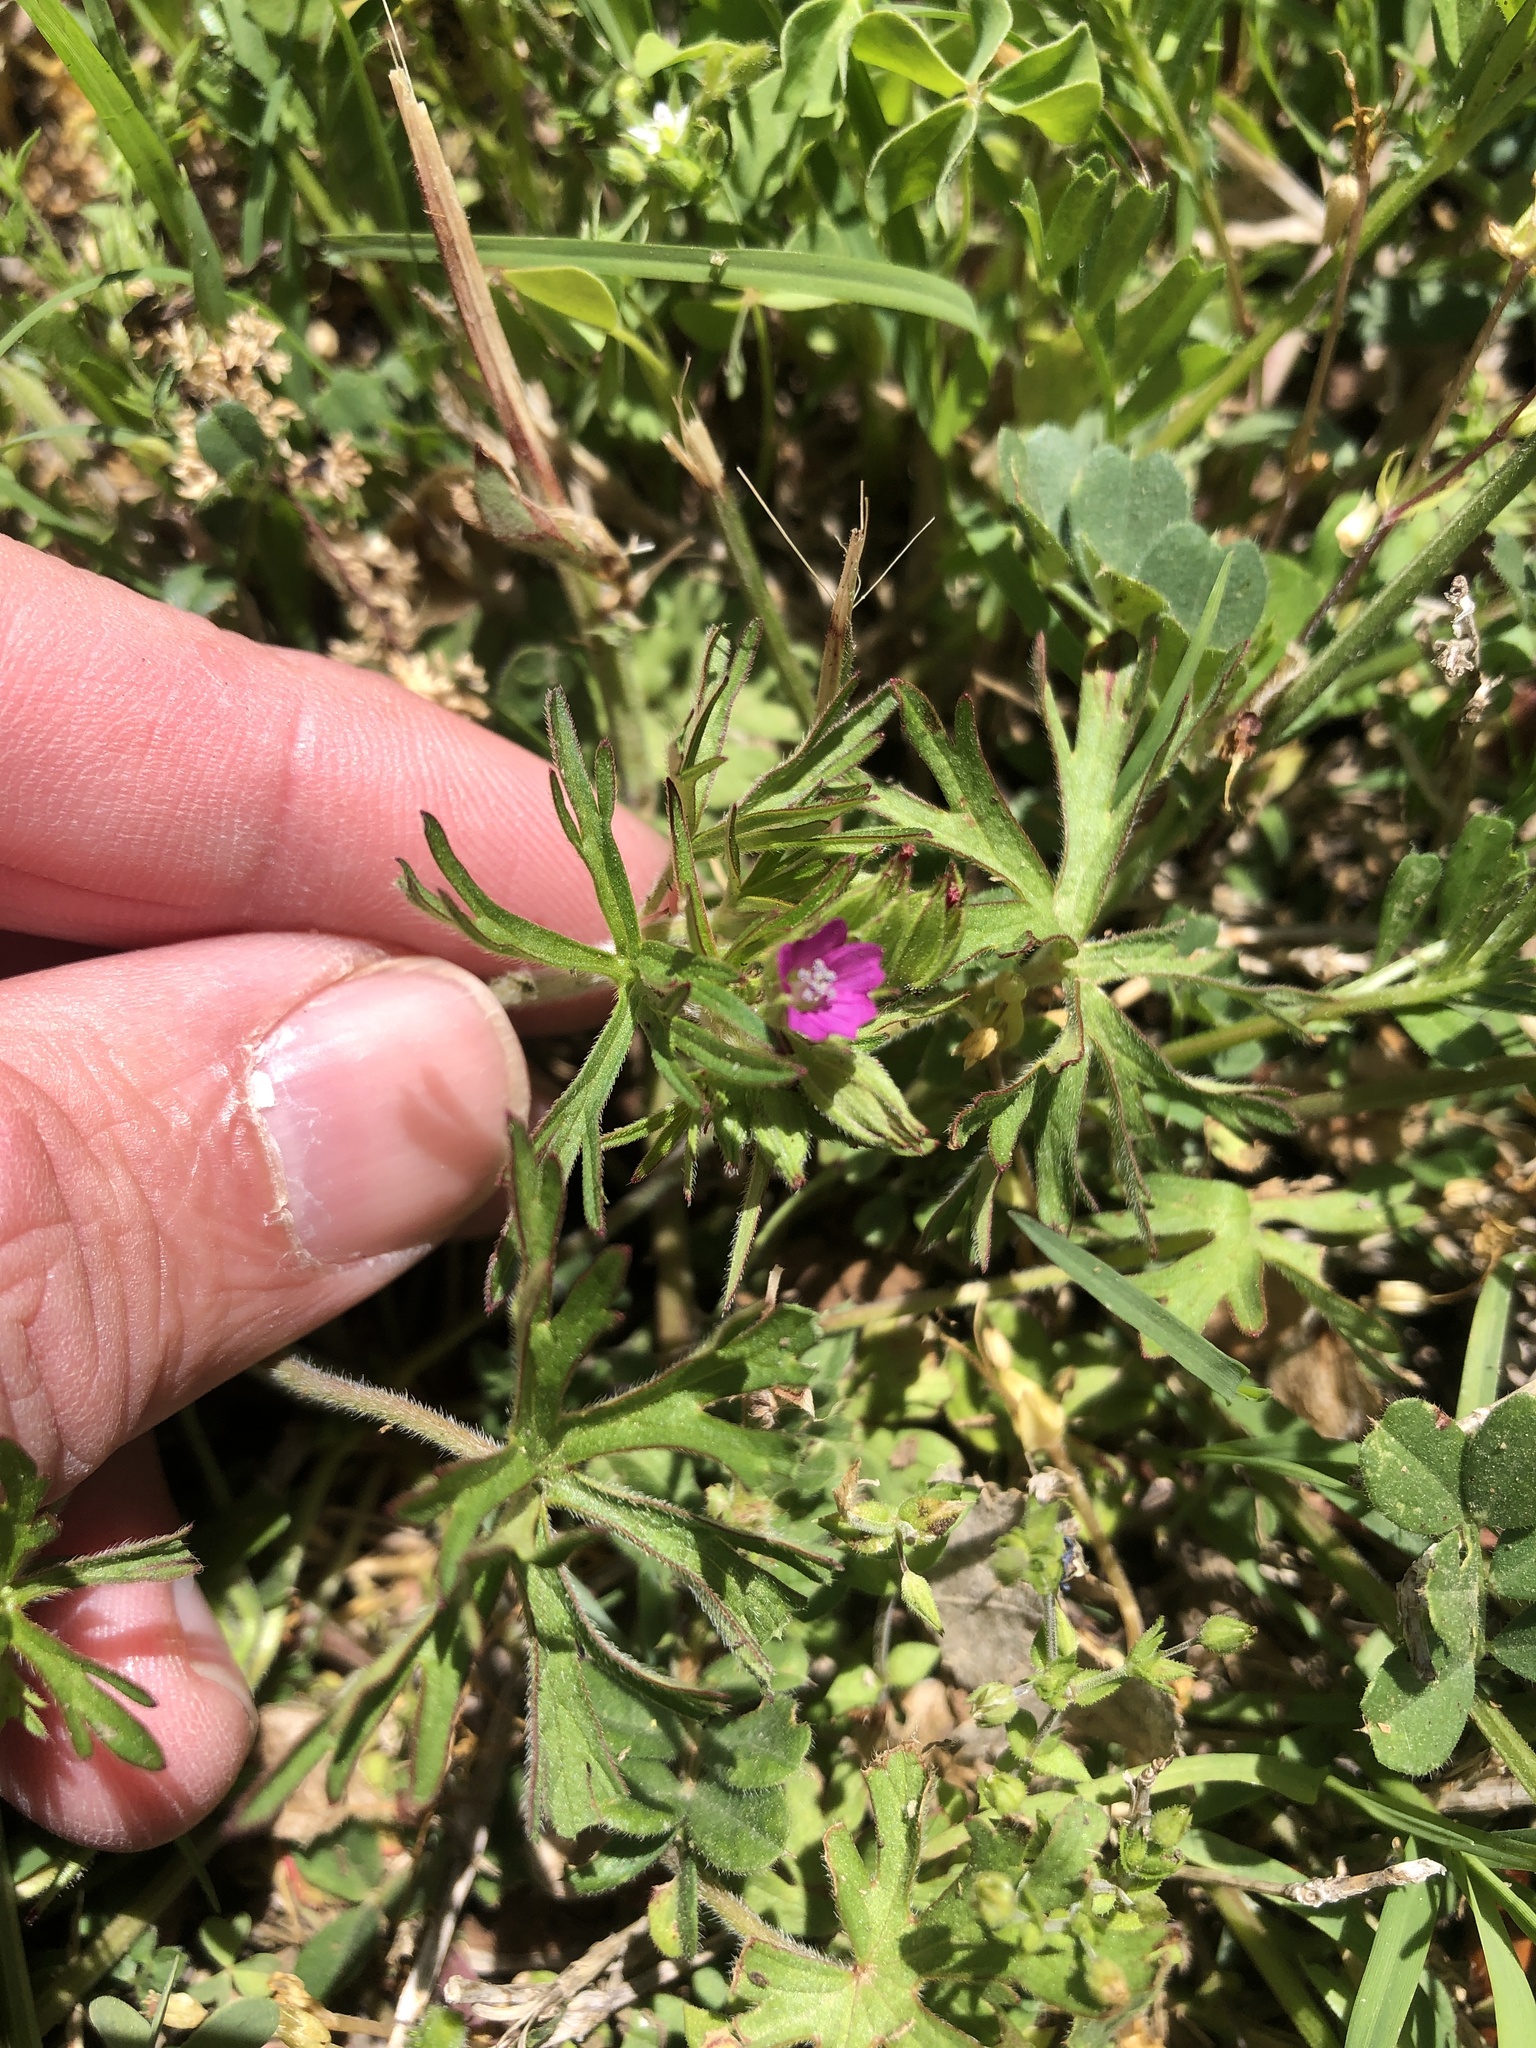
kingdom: Plantae
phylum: Tracheophyta
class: Magnoliopsida
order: Geraniales
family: Geraniaceae
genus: Geranium
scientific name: Geranium dissectum
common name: Cut-leaved crane's-bill
